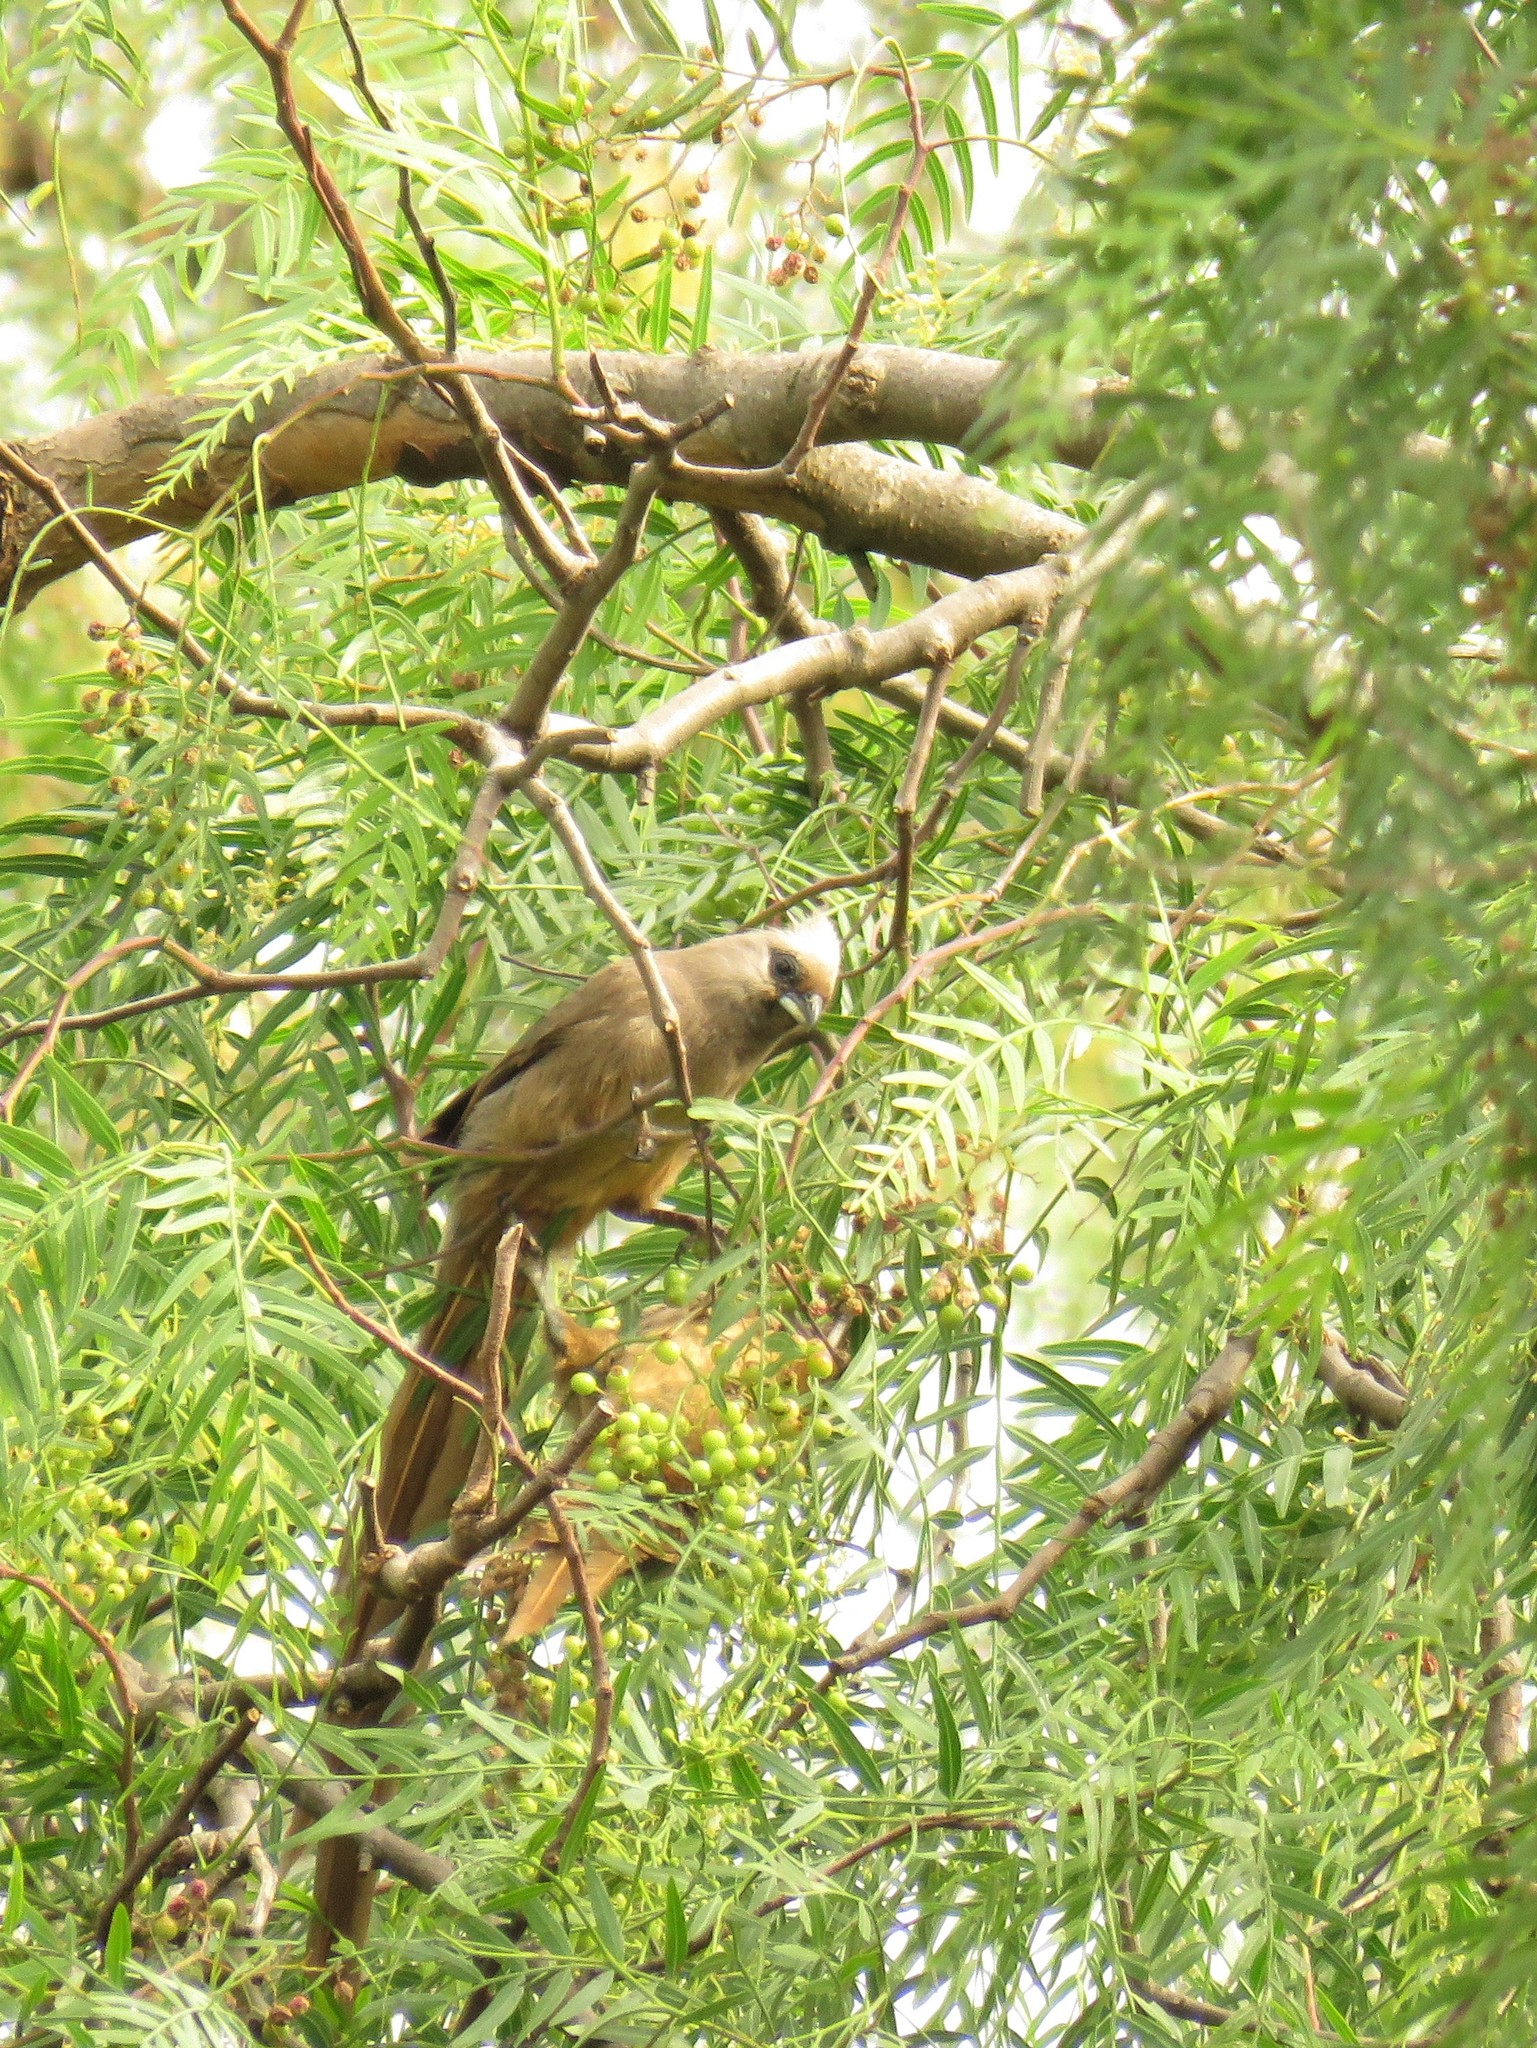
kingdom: Animalia
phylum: Chordata
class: Aves
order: Coliiformes
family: Coliidae
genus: Colius
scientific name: Colius striatus
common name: Speckled mousebird
